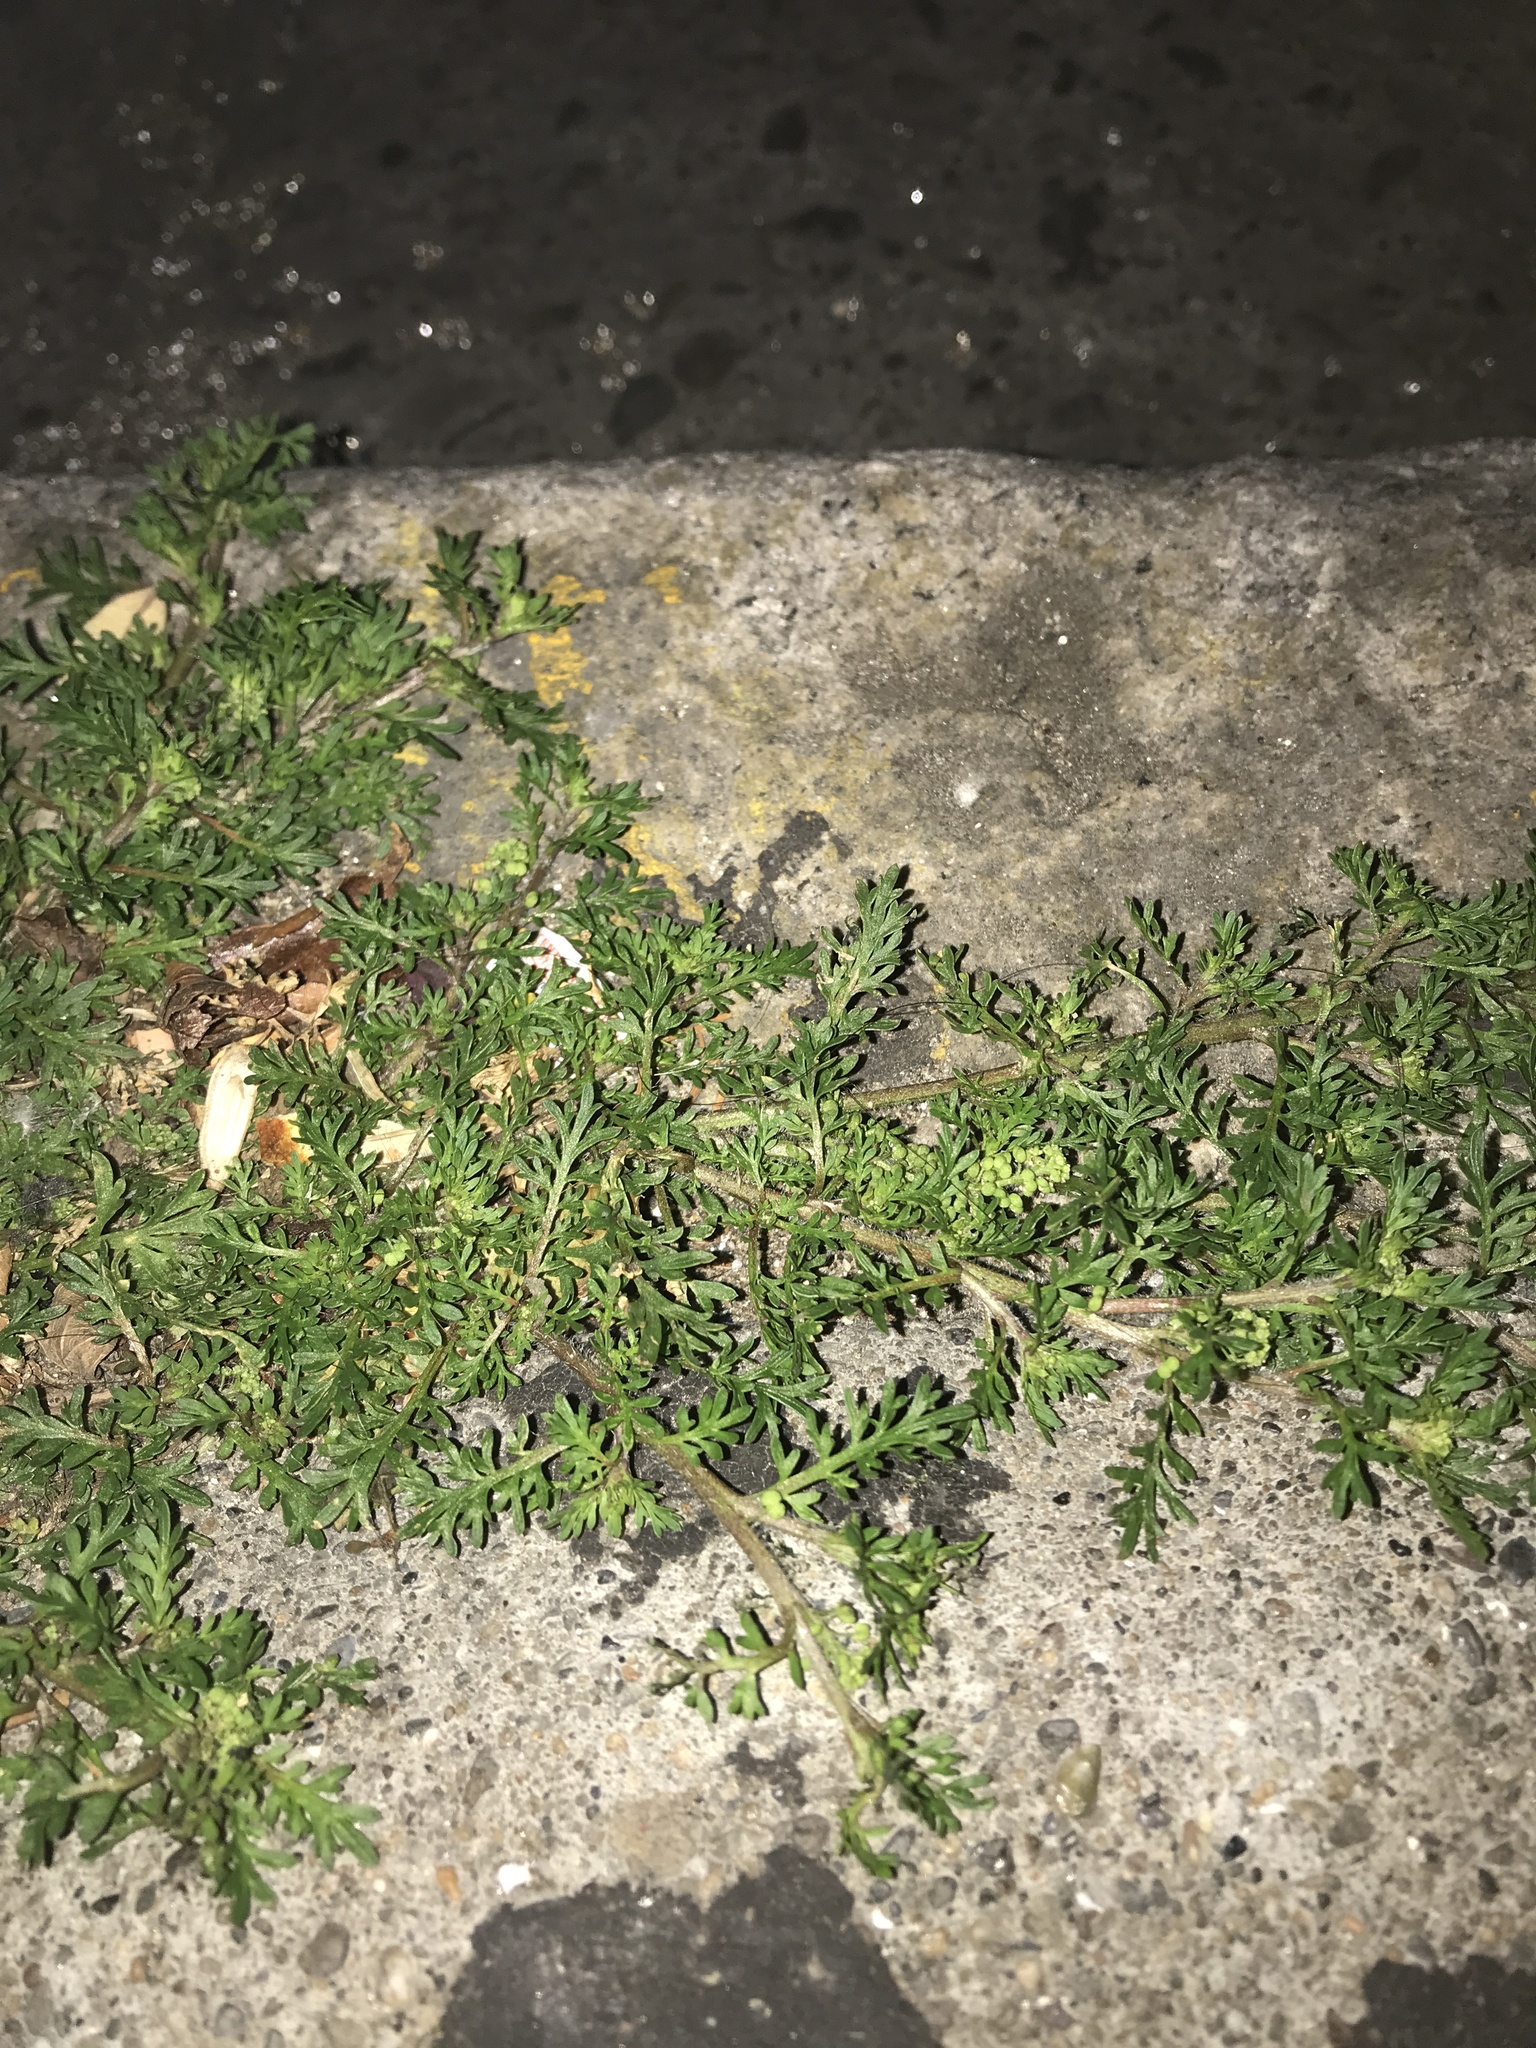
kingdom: Plantae
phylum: Tracheophyta
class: Magnoliopsida
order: Brassicales
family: Brassicaceae
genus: Lepidium
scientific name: Lepidium didymum
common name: Lesser swinecress
